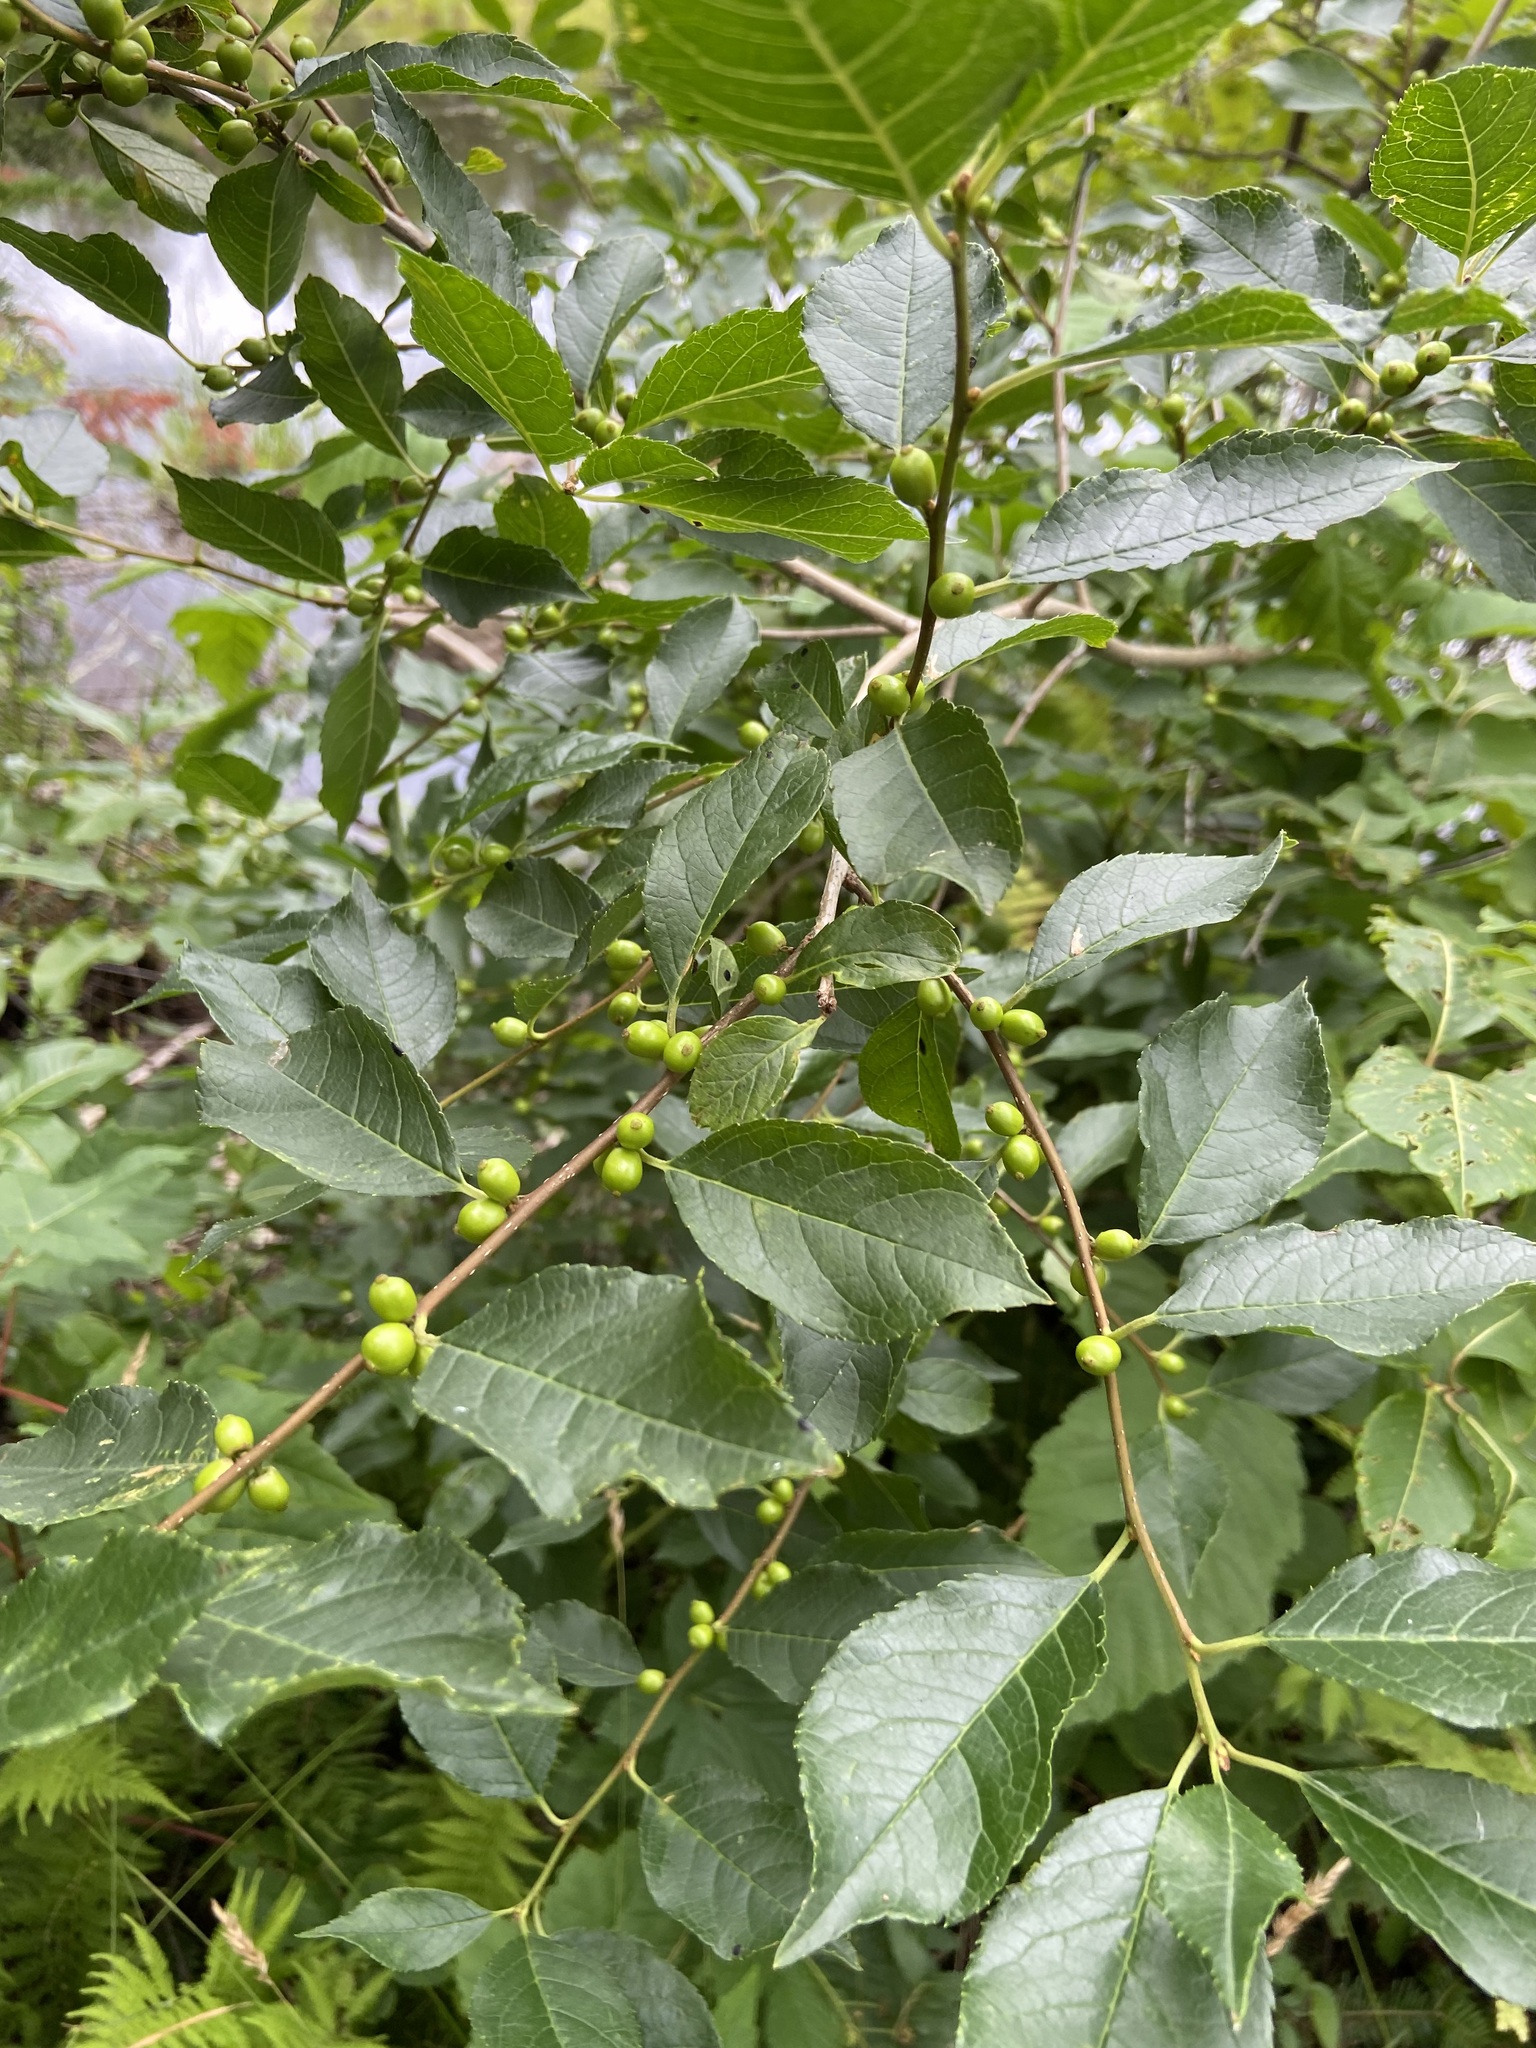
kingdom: Plantae
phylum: Tracheophyta
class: Magnoliopsida
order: Aquifoliales
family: Aquifoliaceae
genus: Ilex
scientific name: Ilex verticillata
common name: Virginia winterberry
